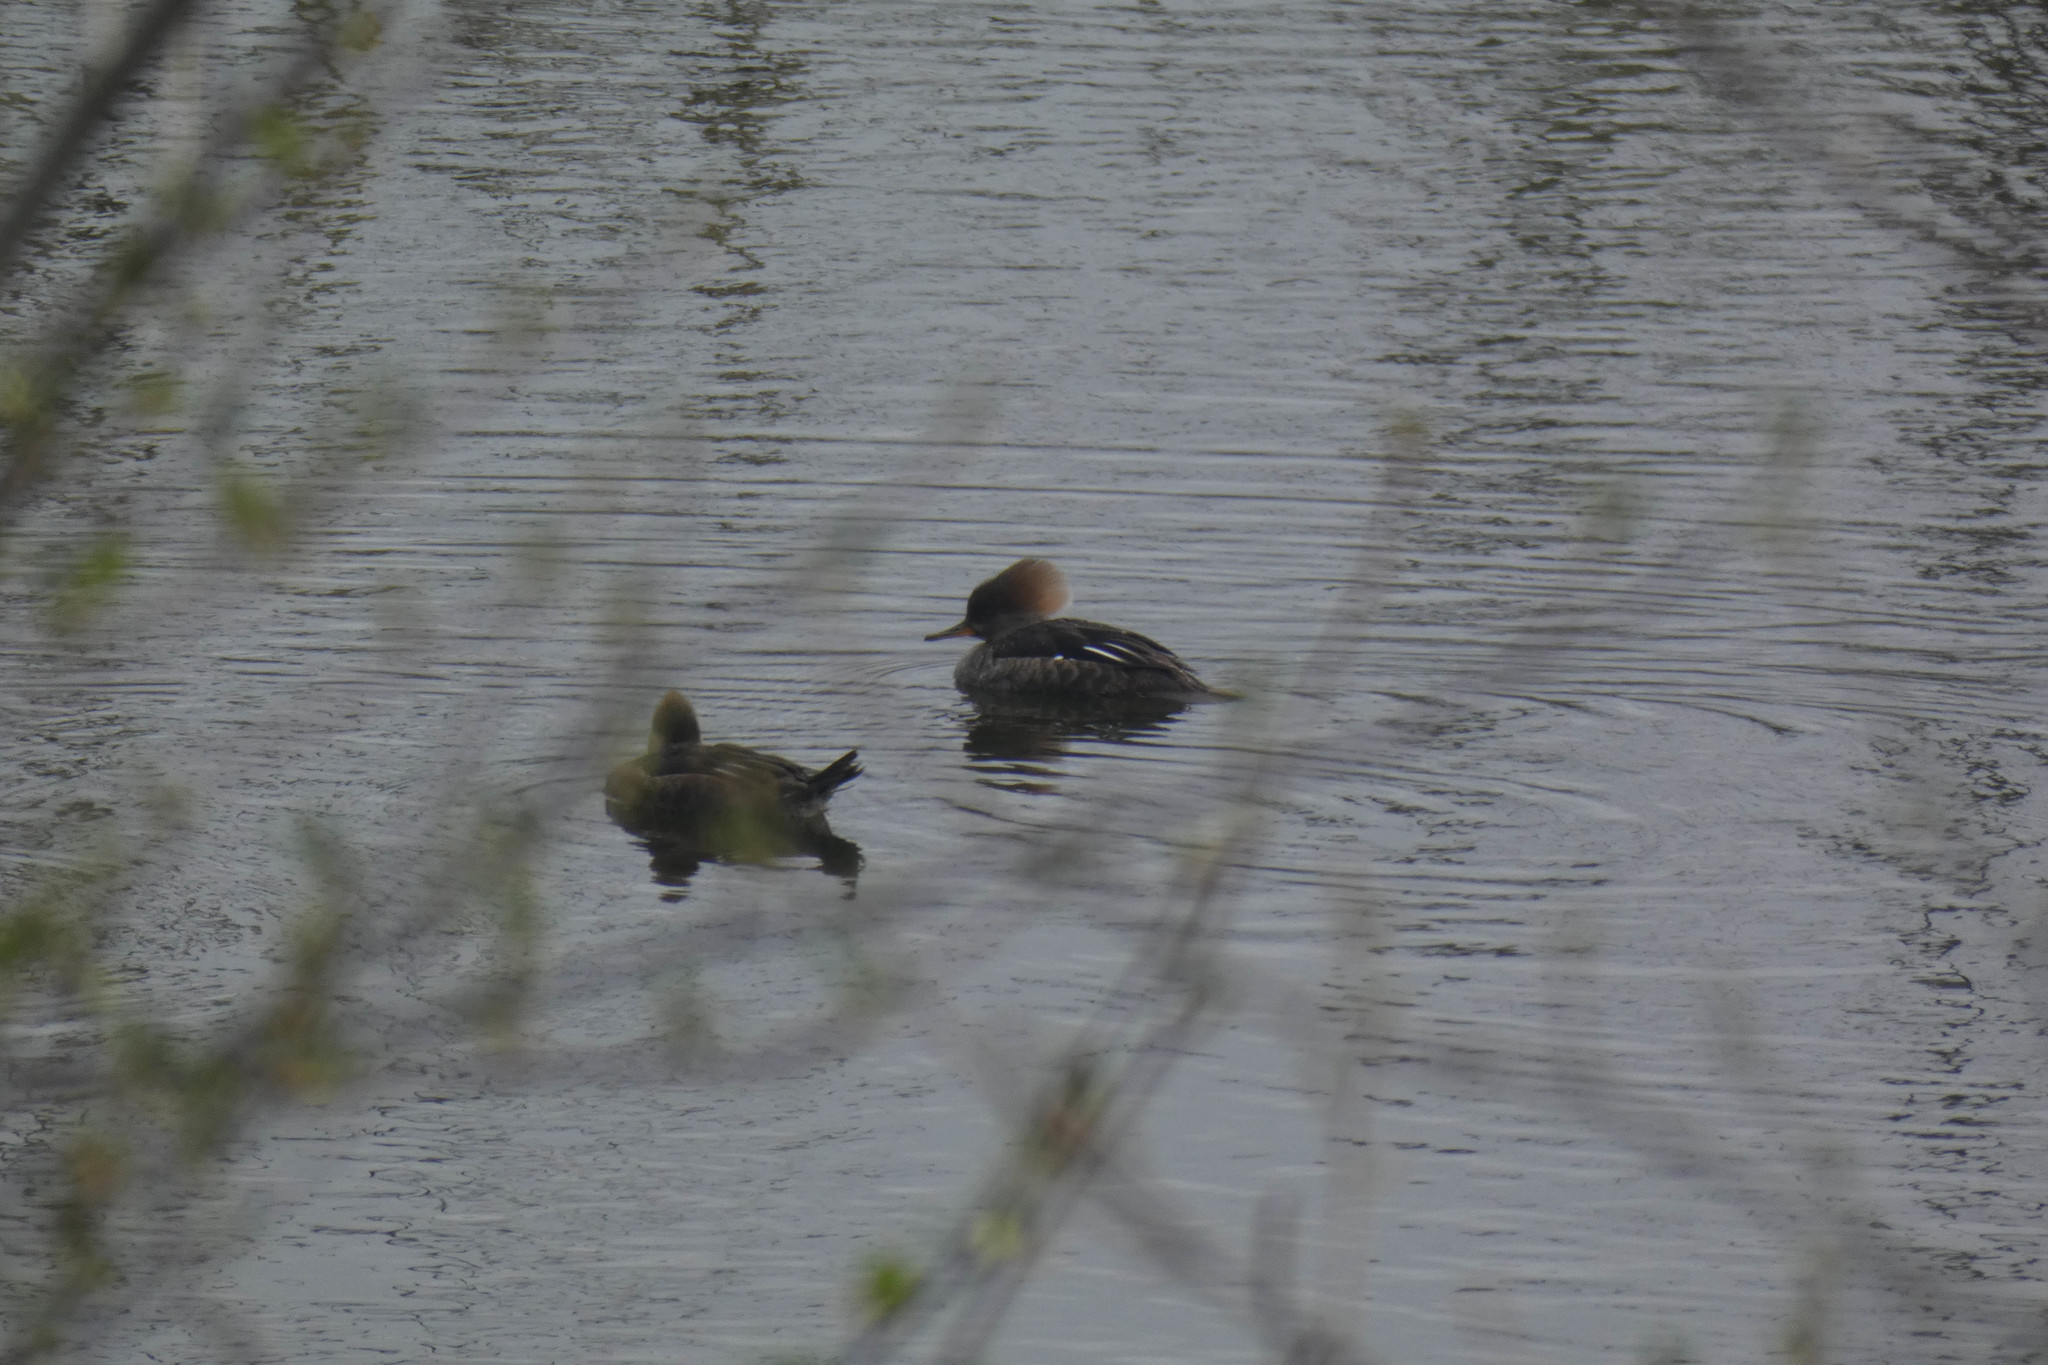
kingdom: Animalia
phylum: Chordata
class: Aves
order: Anseriformes
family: Anatidae
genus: Lophodytes
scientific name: Lophodytes cucullatus
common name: Hooded merganser
